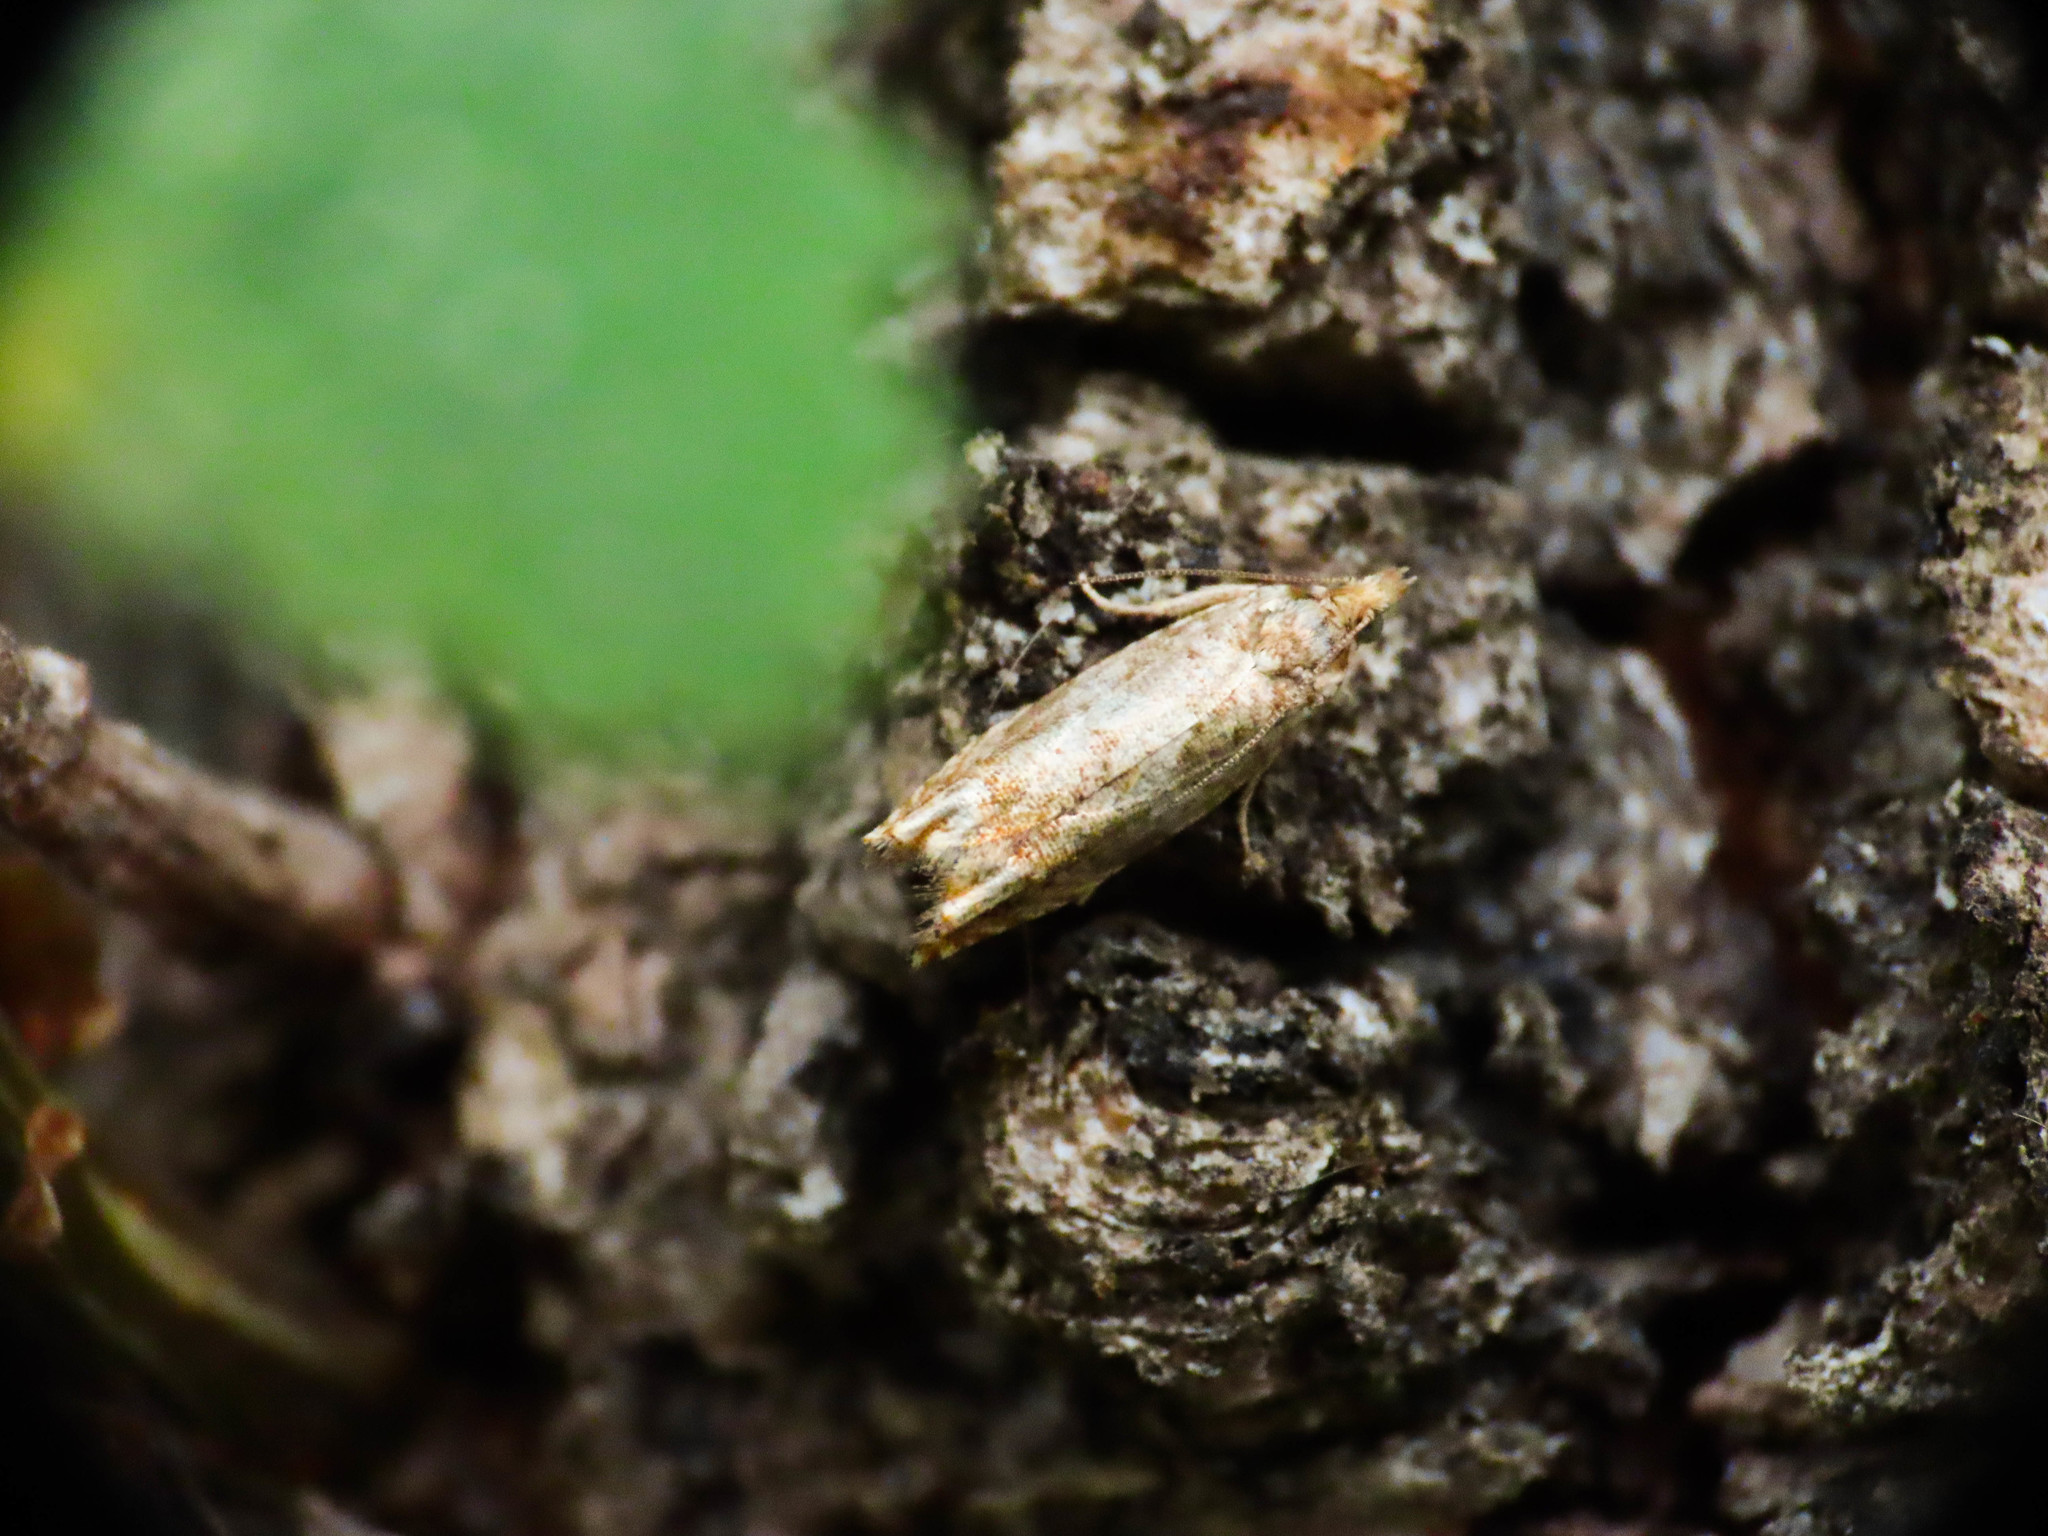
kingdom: Animalia
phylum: Arthropoda
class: Insecta
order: Lepidoptera
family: Tortricidae
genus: Epinotia
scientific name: Epinotia abbreviana
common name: Tortricid moth
